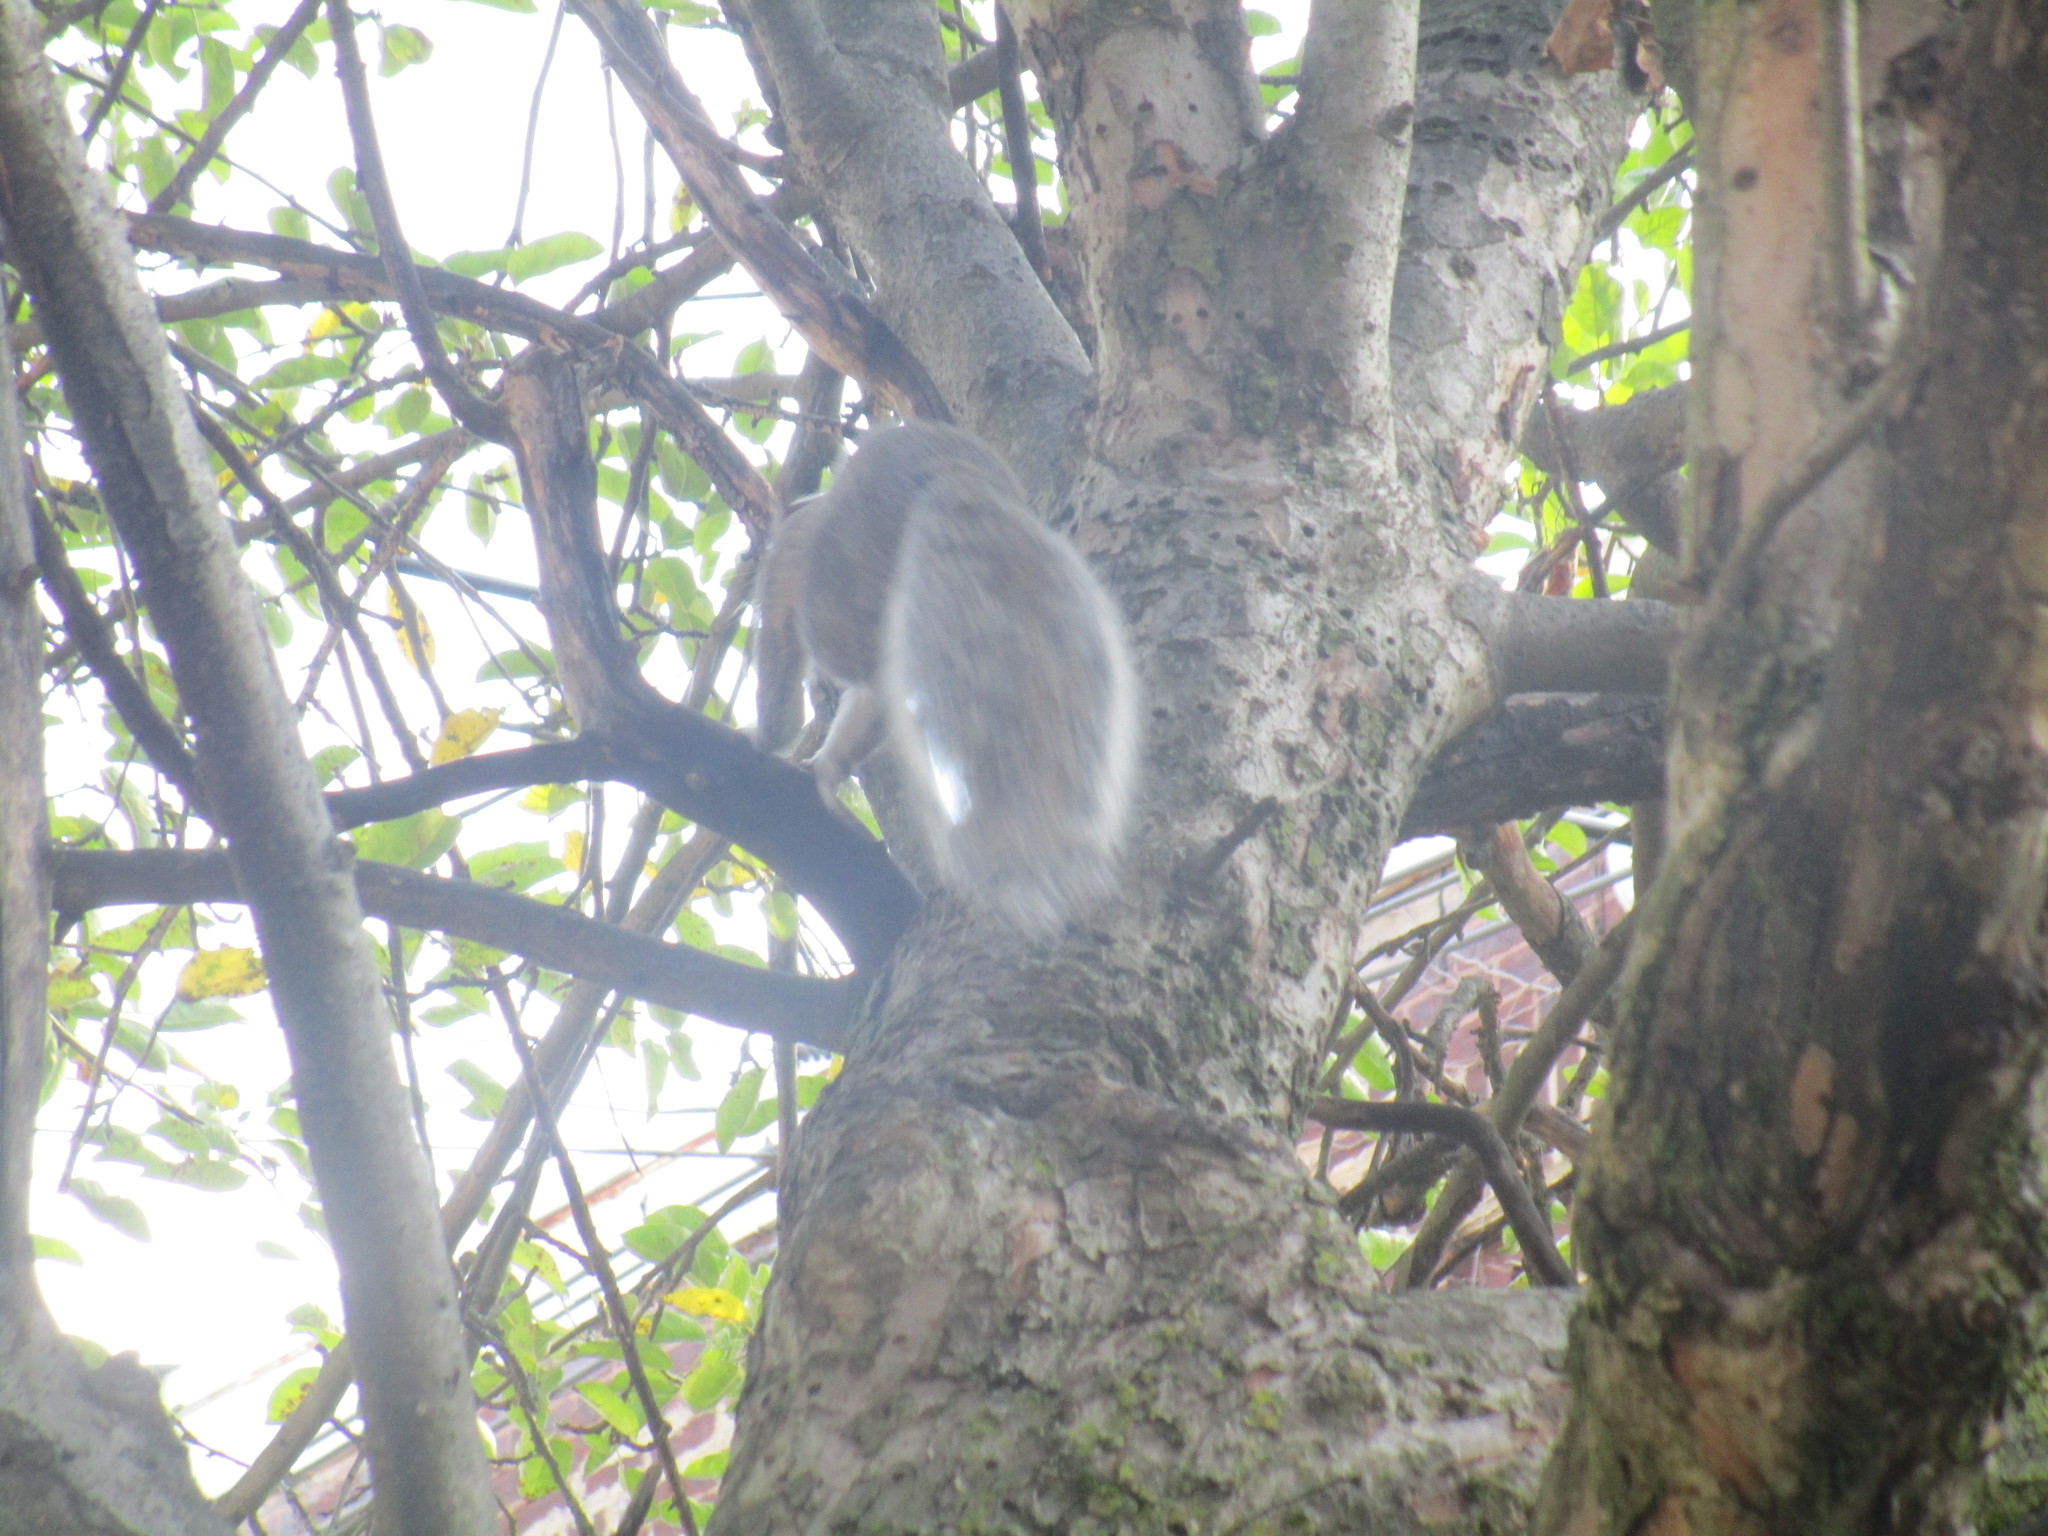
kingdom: Animalia
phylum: Chordata
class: Mammalia
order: Rodentia
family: Sciuridae
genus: Sciurus
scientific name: Sciurus carolinensis
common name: Eastern gray squirrel
